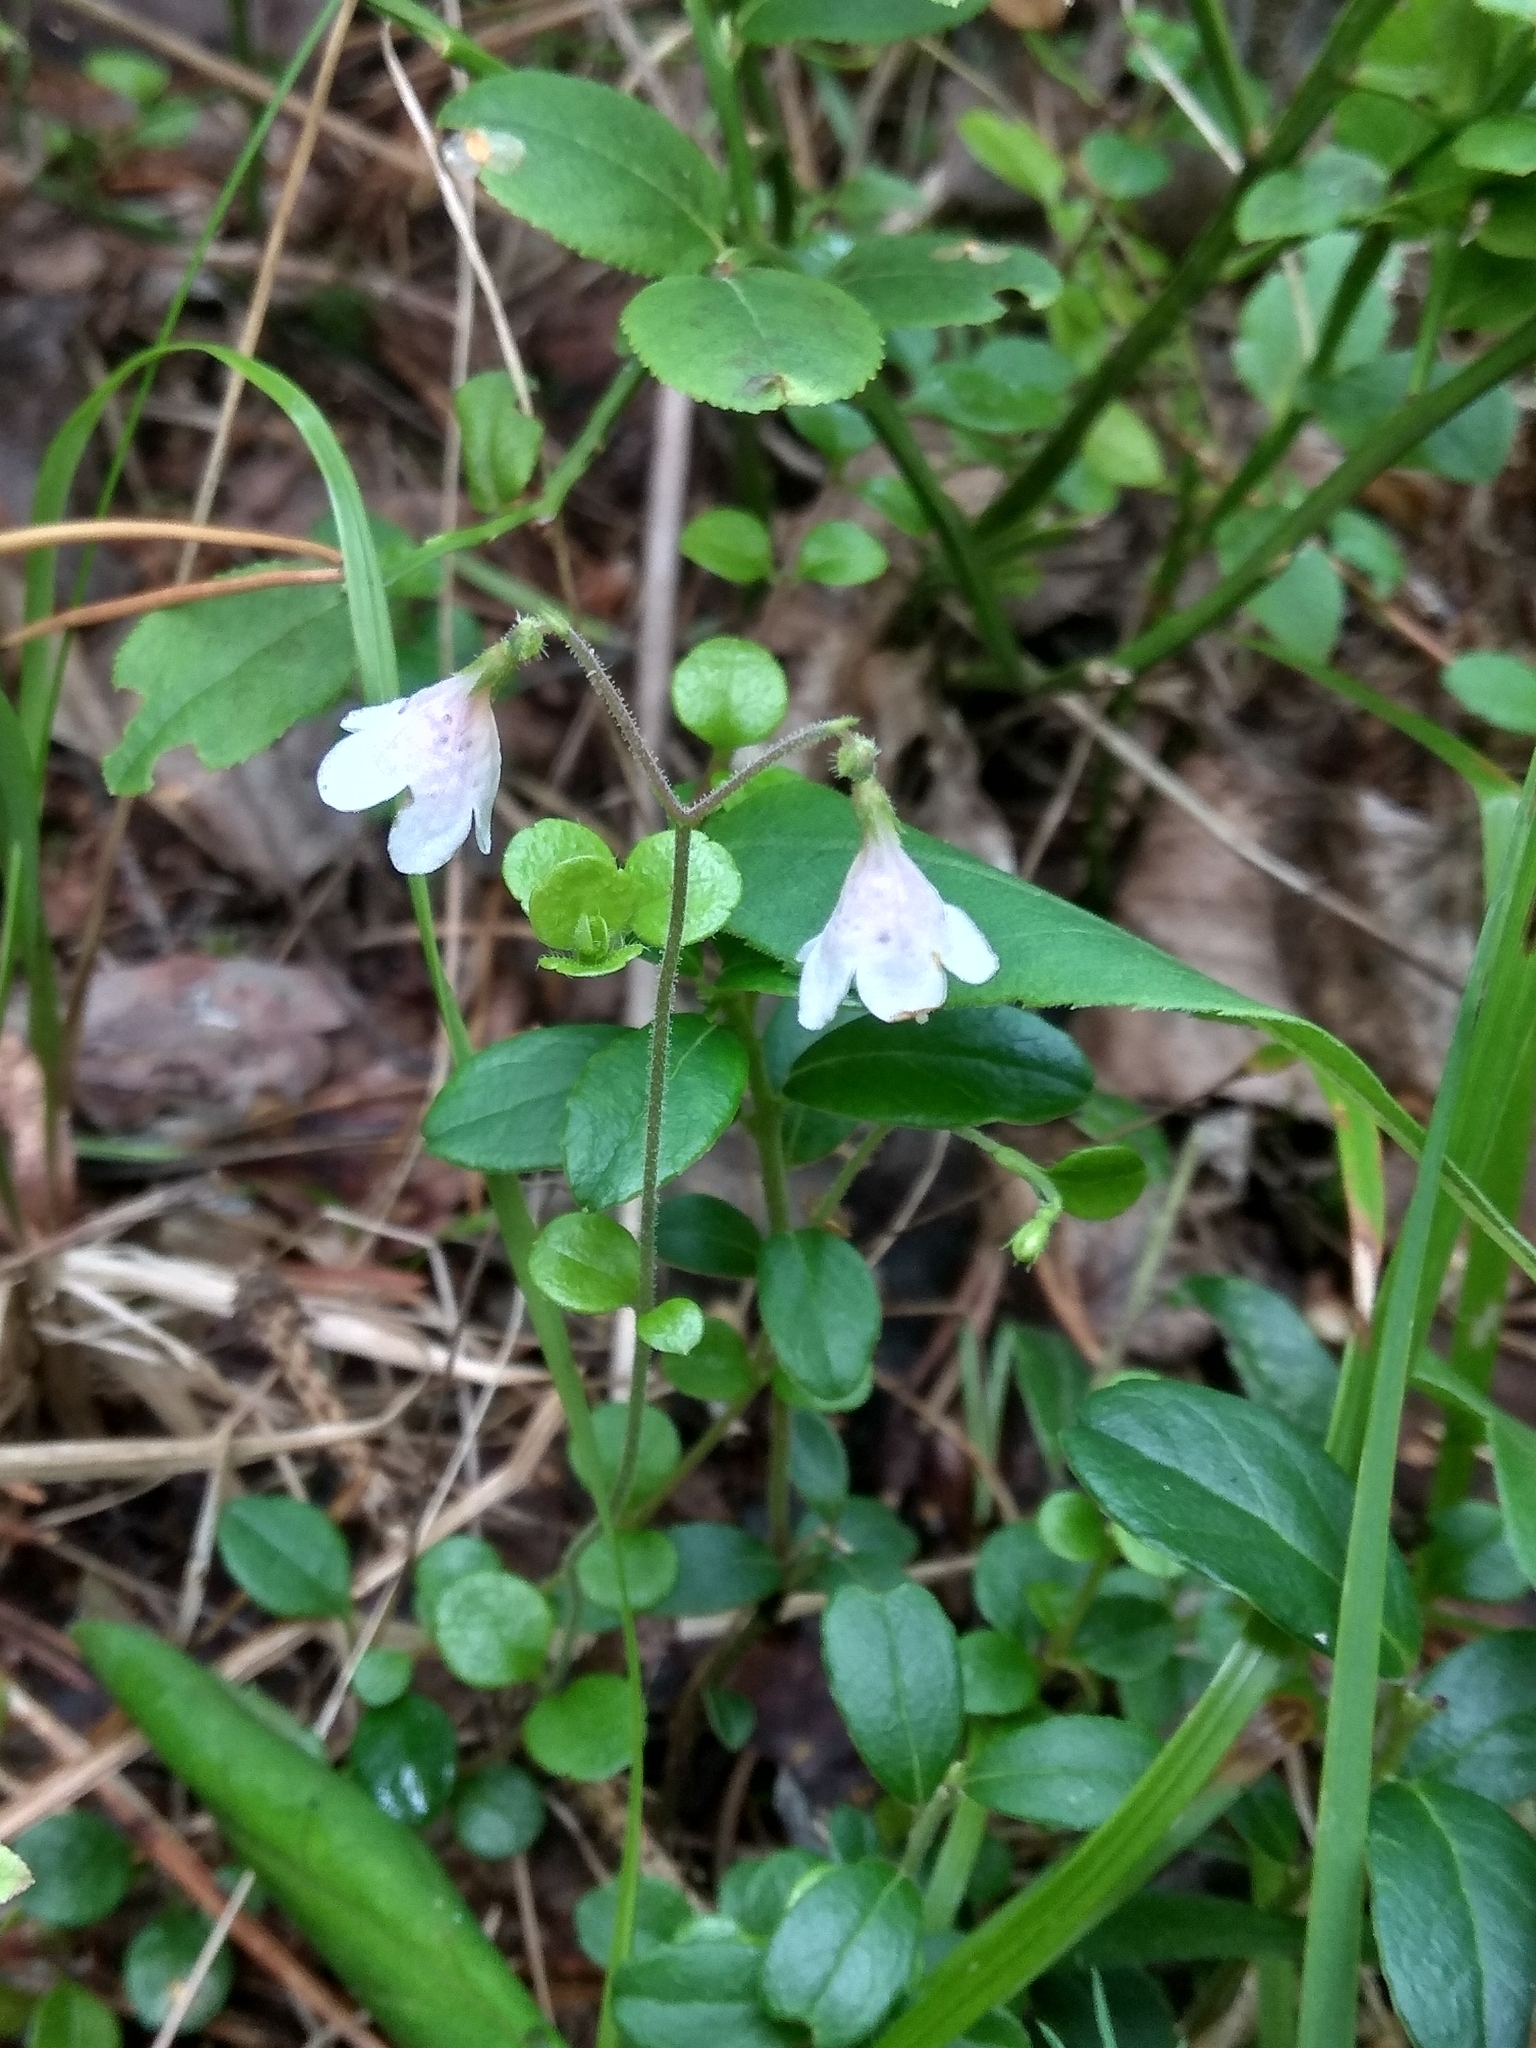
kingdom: Plantae
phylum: Tracheophyta
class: Magnoliopsida
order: Dipsacales
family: Caprifoliaceae
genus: Linnaea
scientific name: Linnaea borealis
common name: Twinflower
